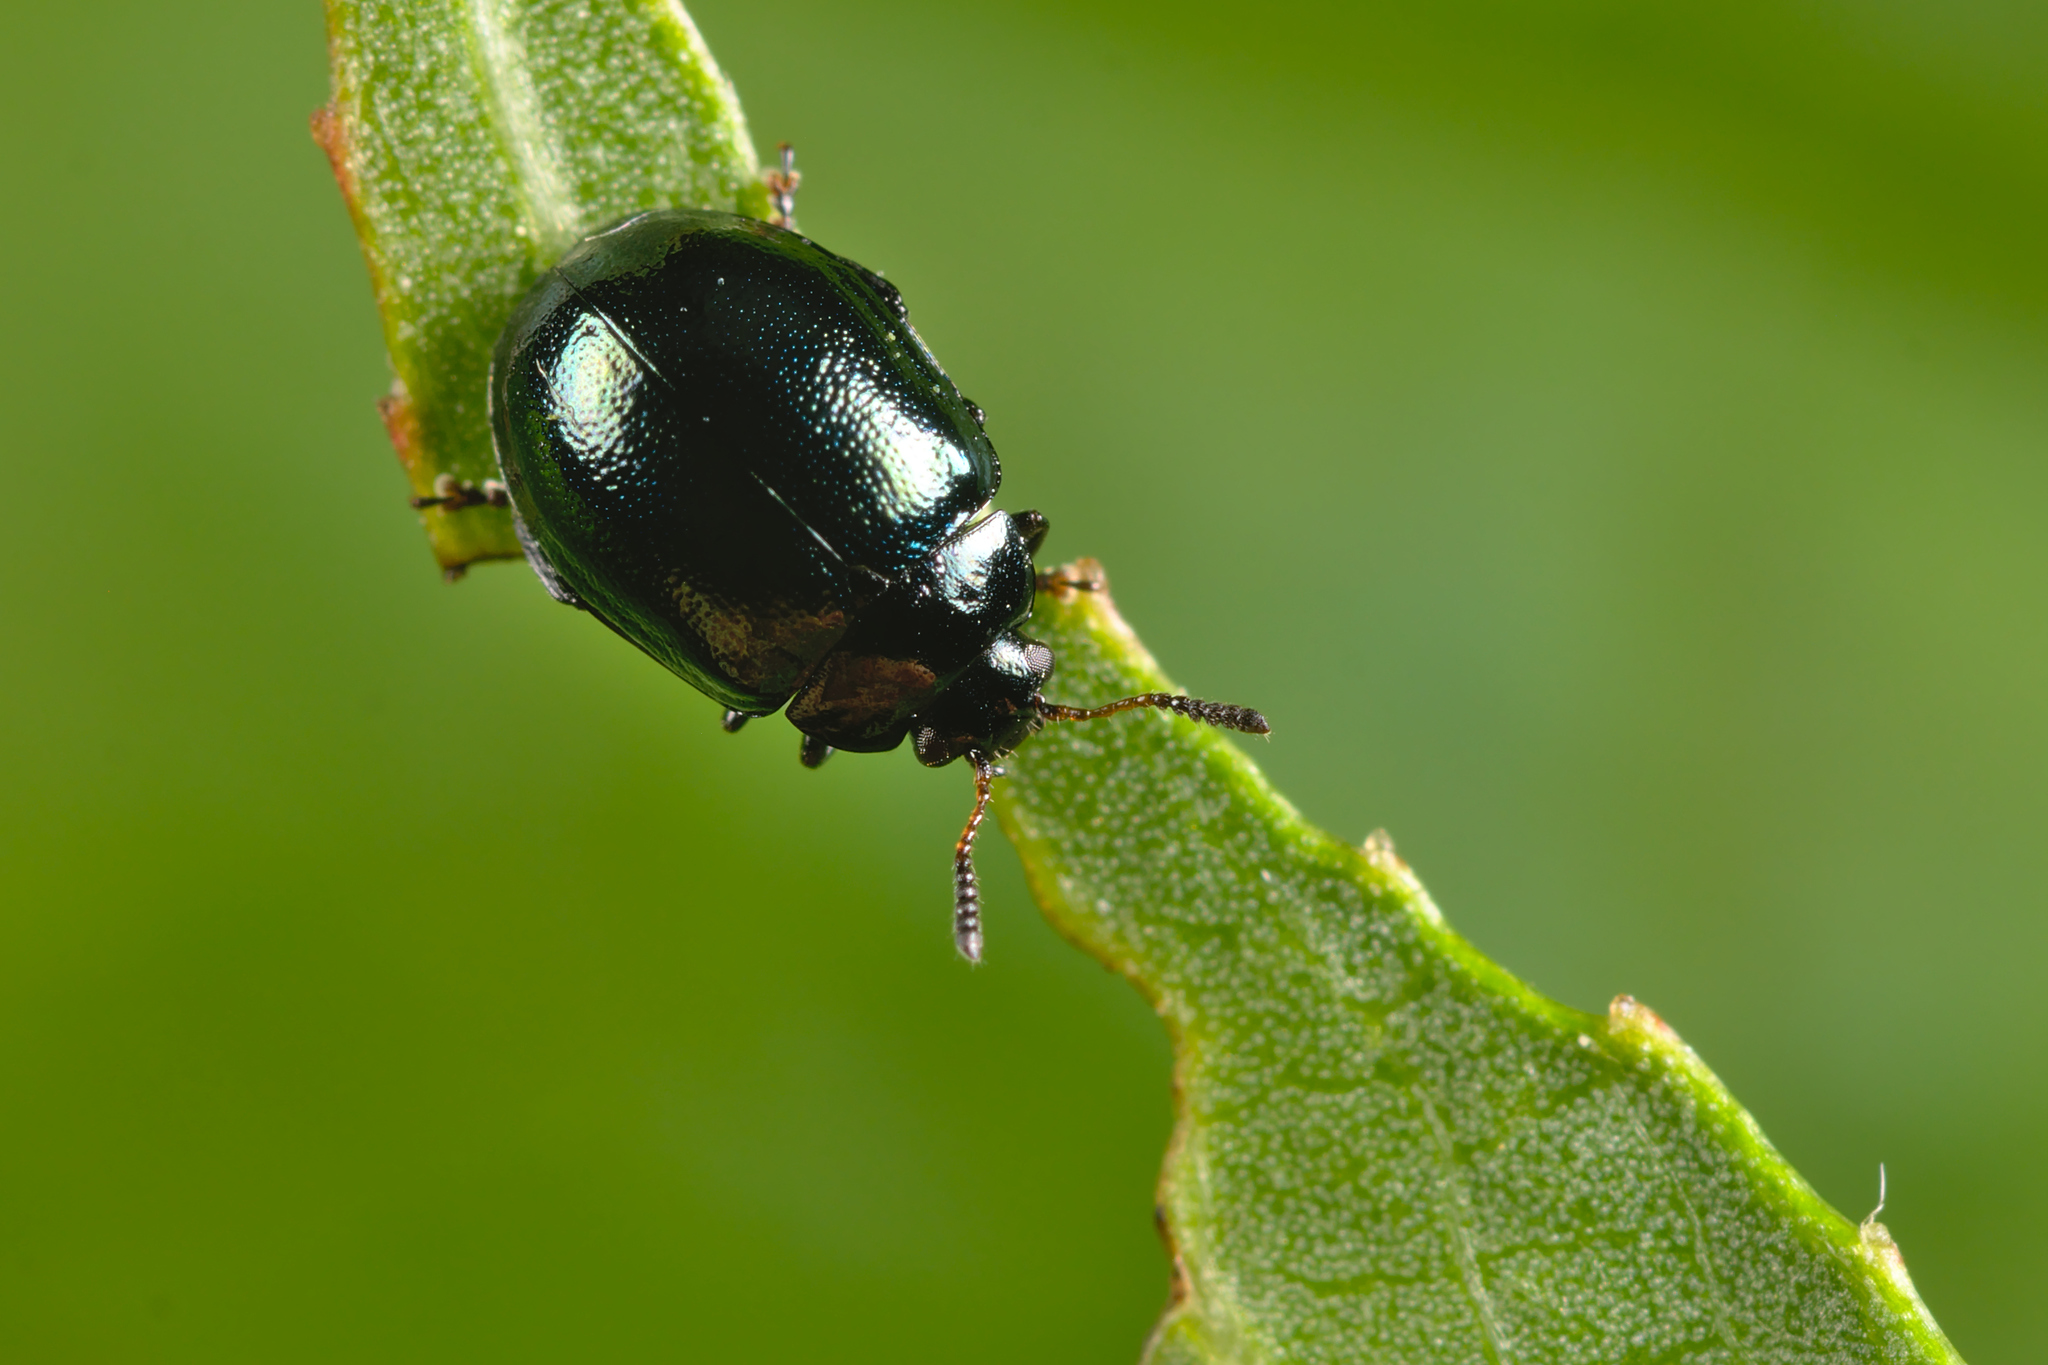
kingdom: Animalia
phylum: Arthropoda
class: Insecta
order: Coleoptera
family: Chrysomelidae
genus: Plagiodera
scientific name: Plagiodera versicolora
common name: Imported willow leaf beetle
